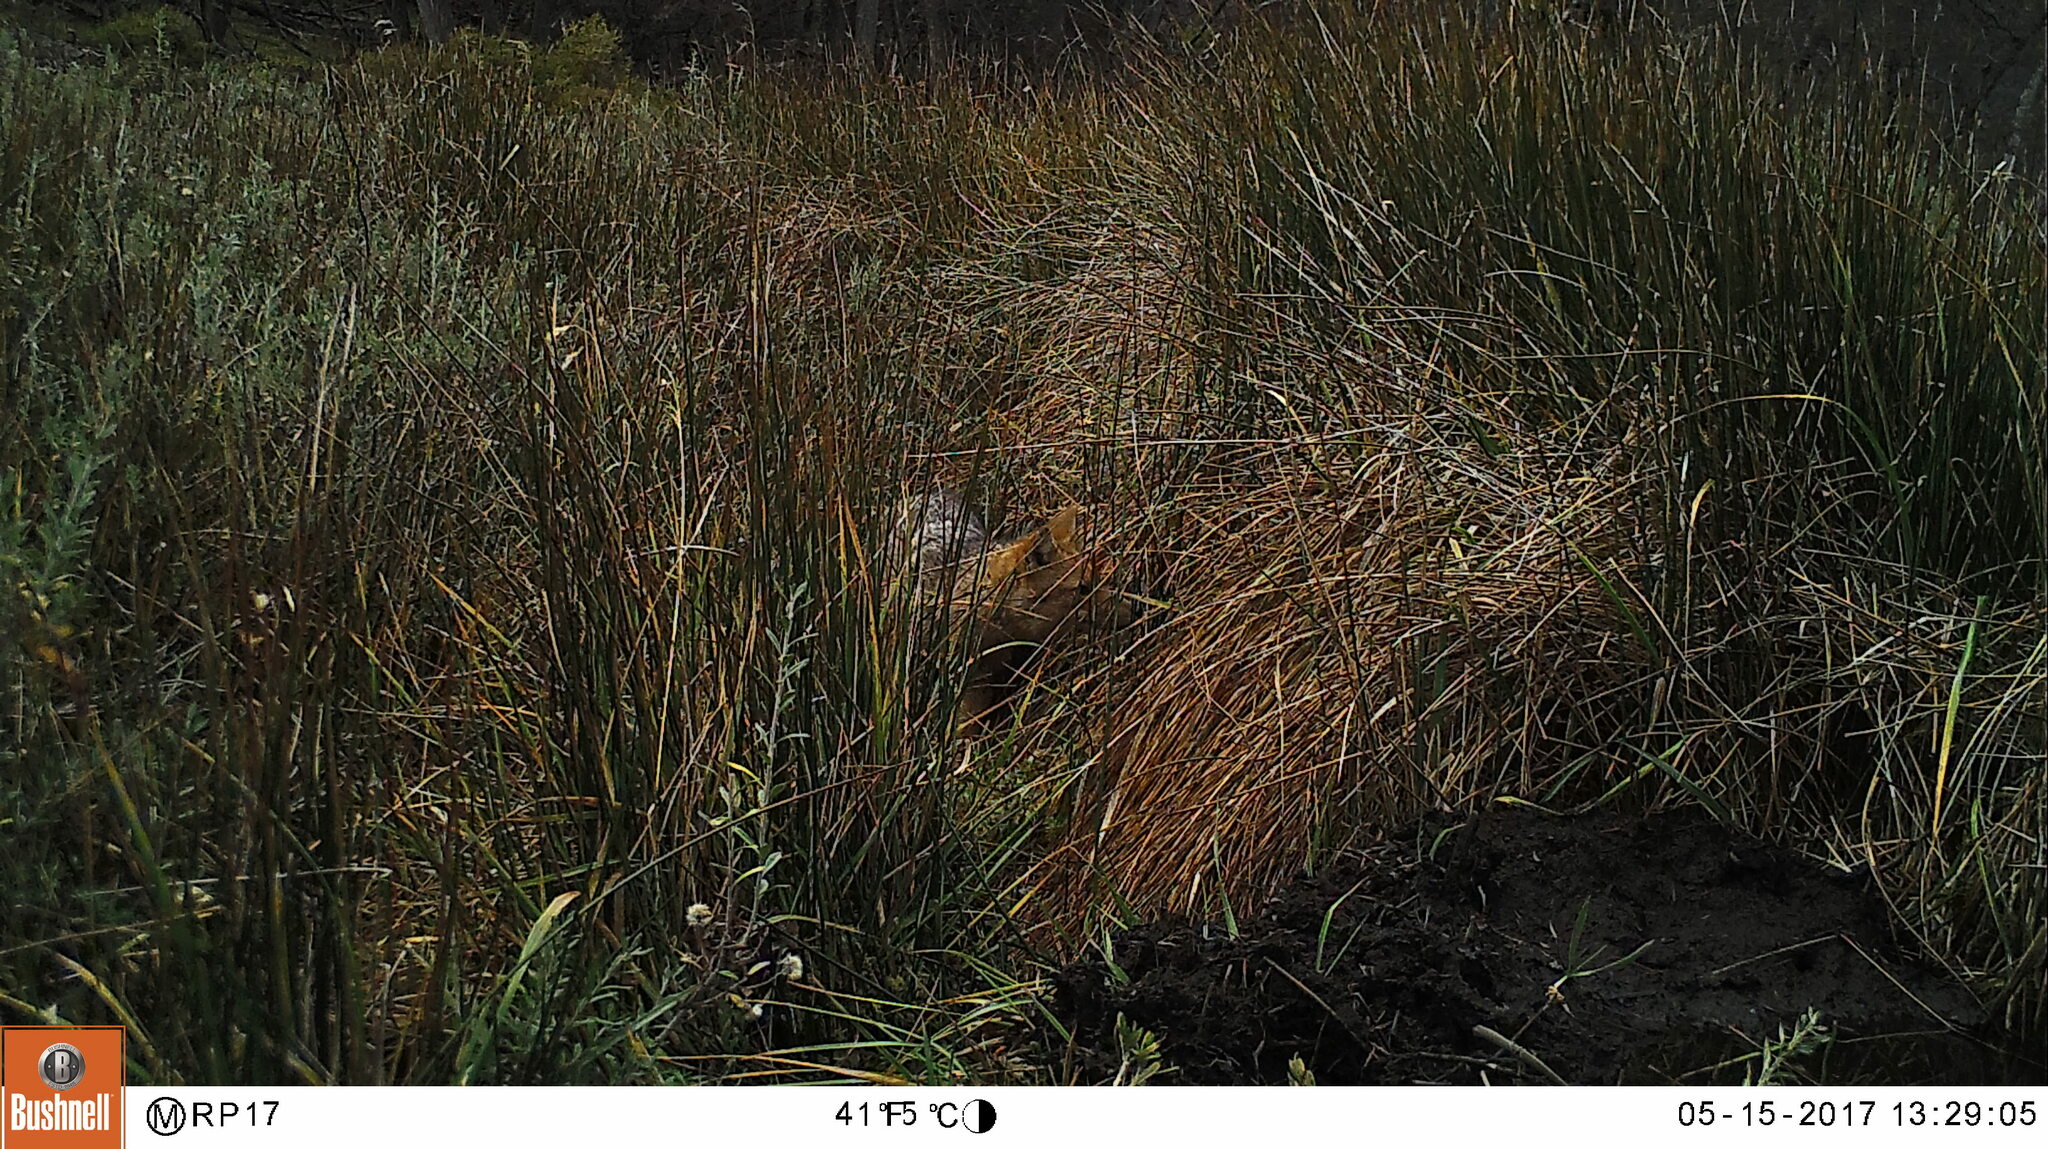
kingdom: Animalia
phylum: Chordata
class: Mammalia
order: Carnivora
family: Canidae
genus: Lycalopex
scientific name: Lycalopex culpaeus
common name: Culpeo
